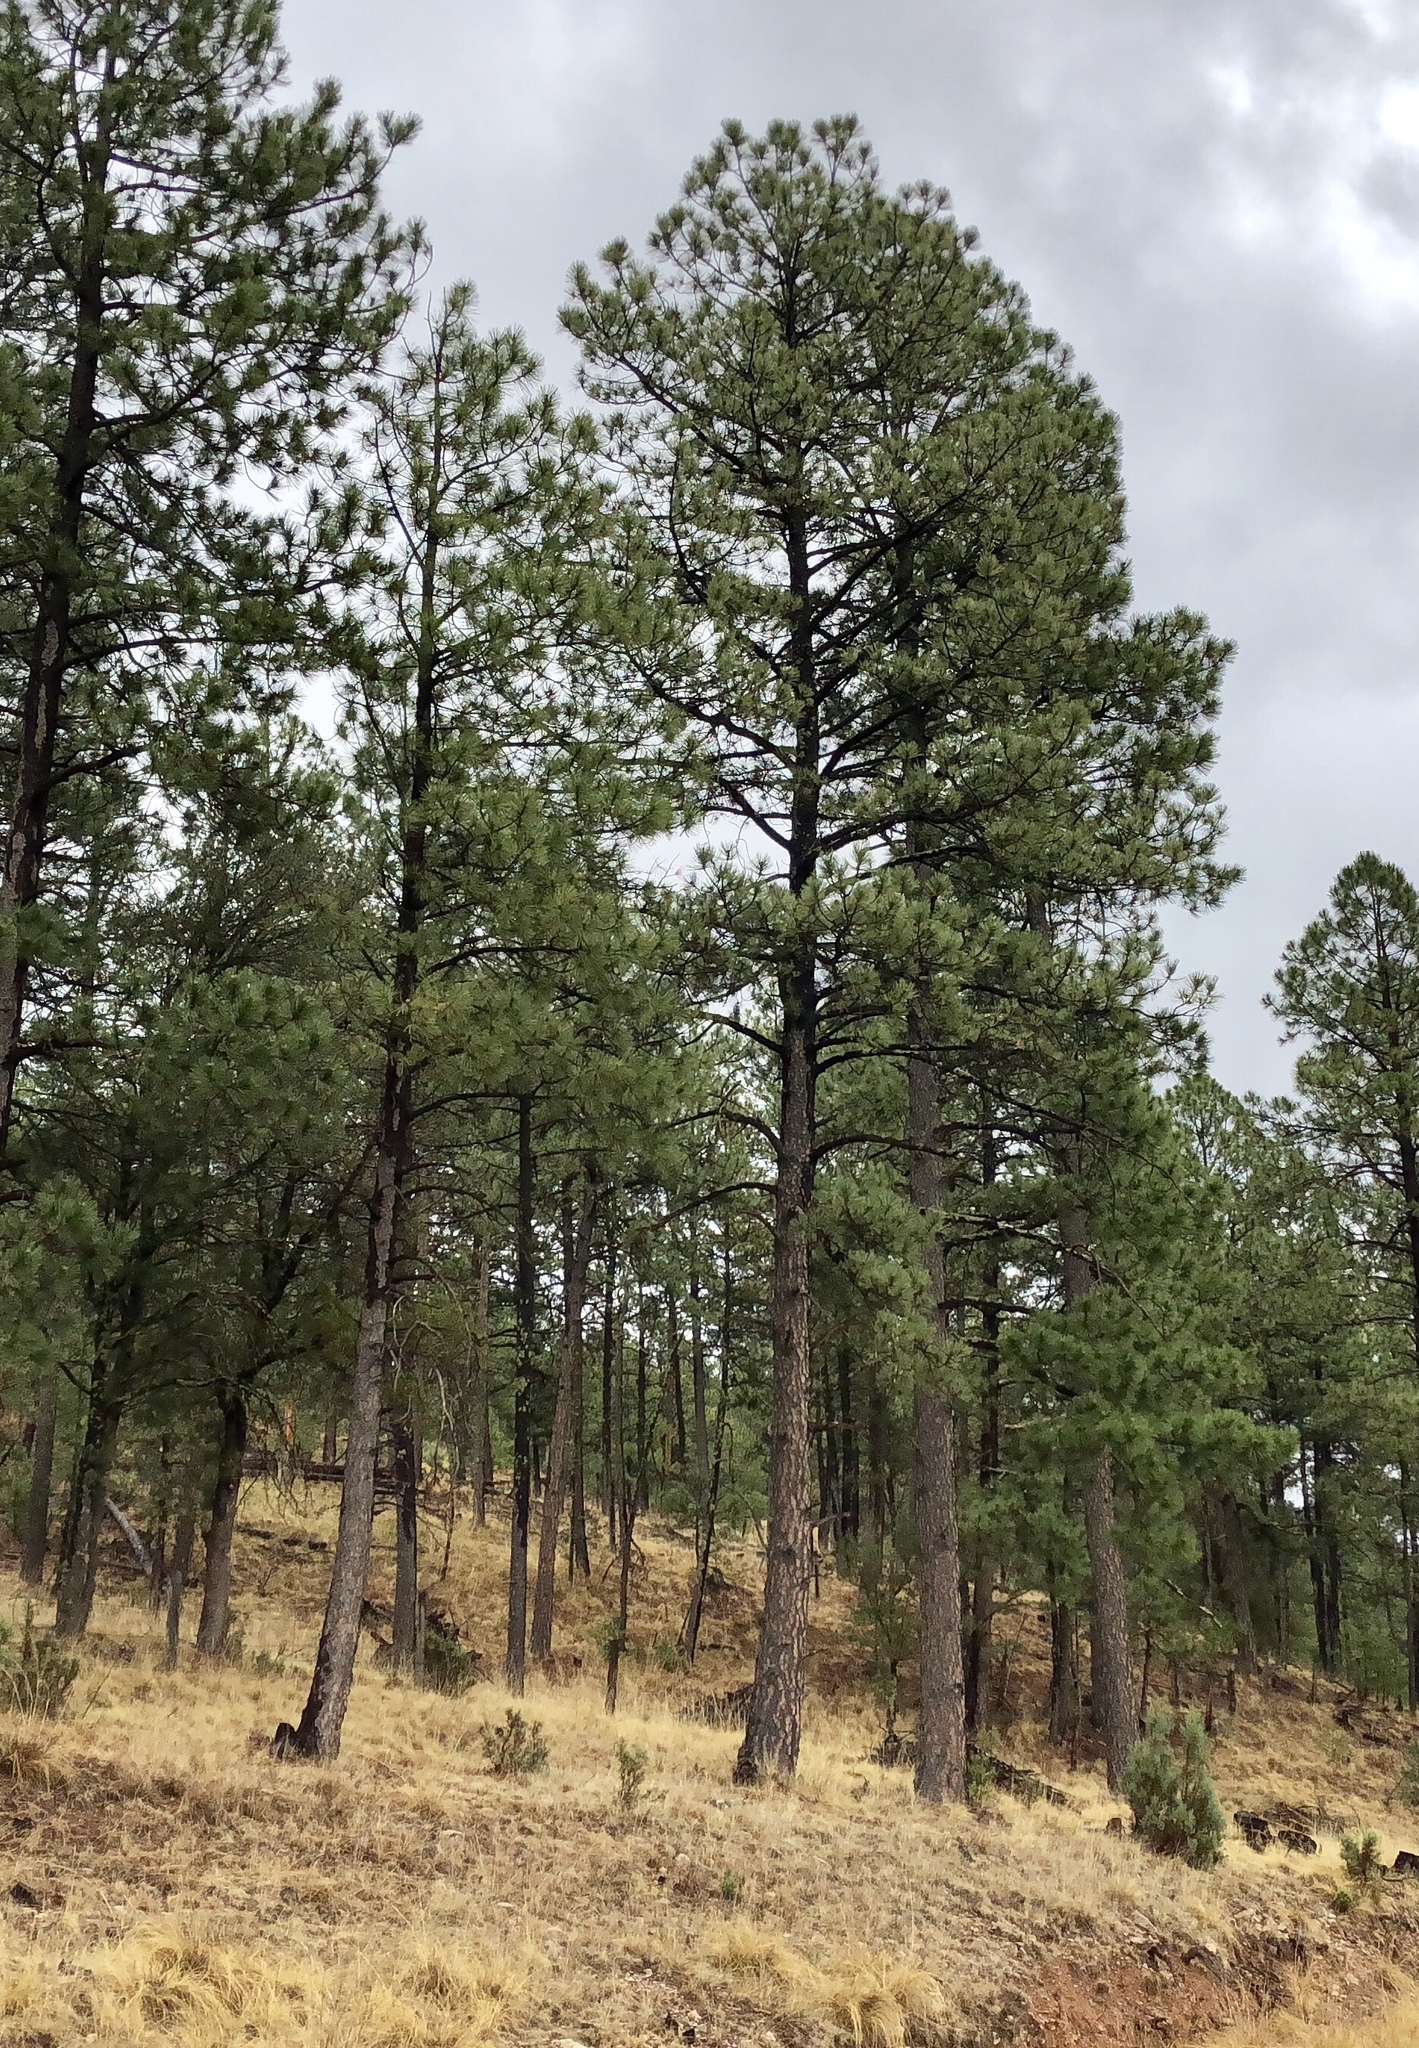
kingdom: Plantae
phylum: Tracheophyta
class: Pinopsida
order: Pinales
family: Pinaceae
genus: Pinus
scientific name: Pinus ponderosa
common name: Western yellow-pine
